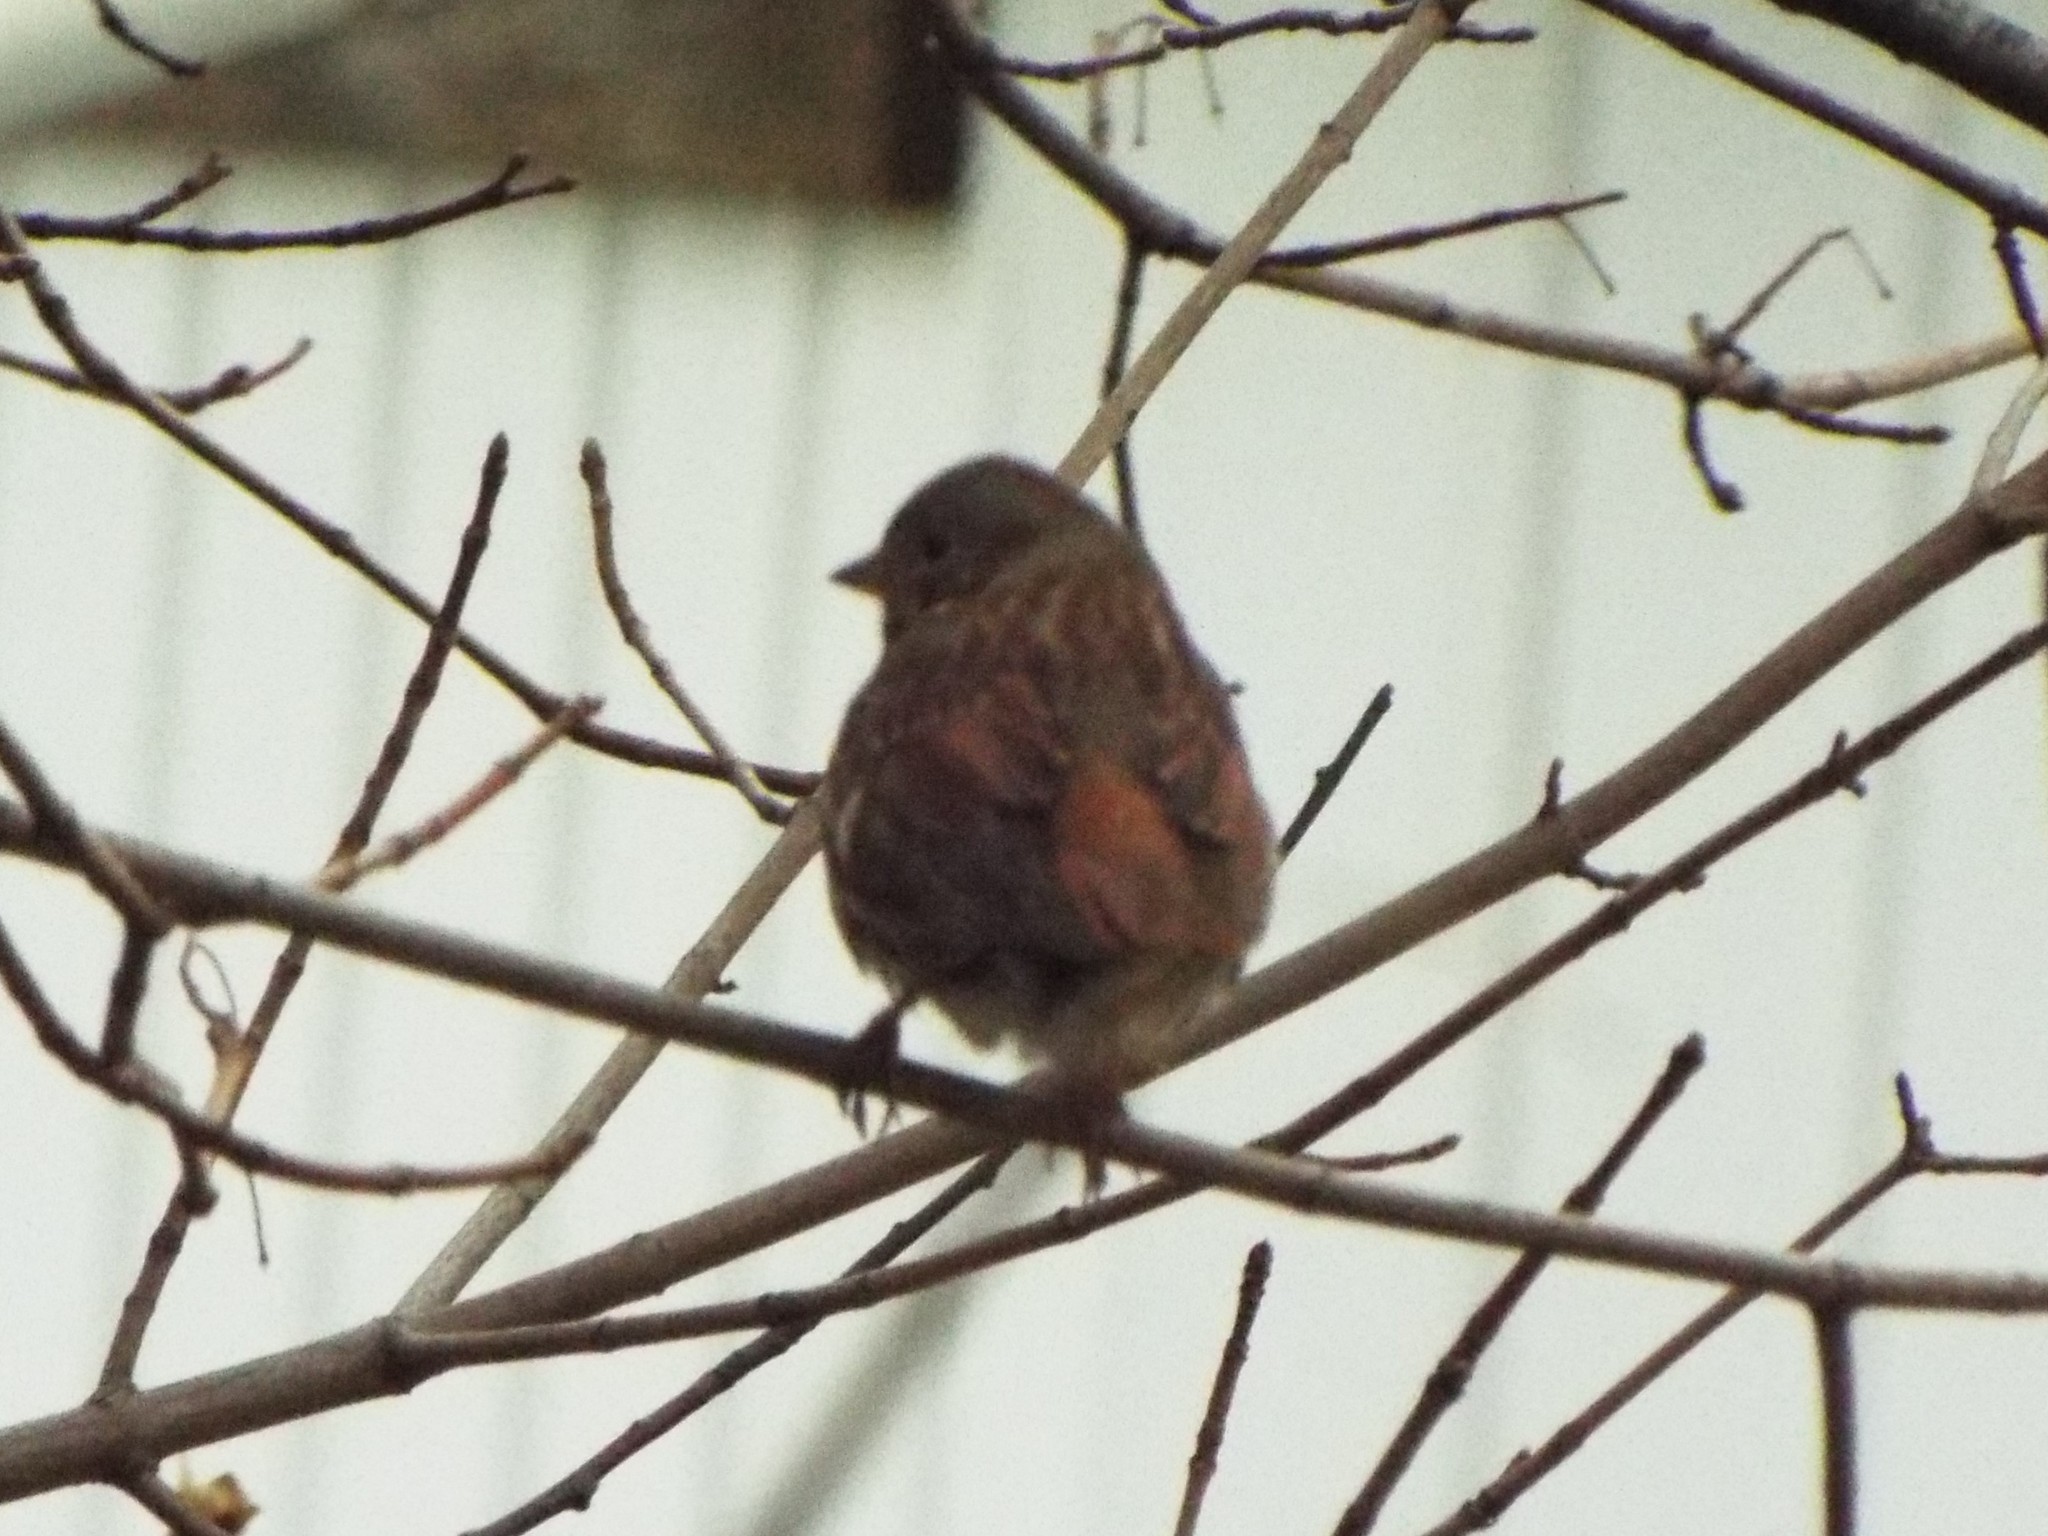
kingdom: Animalia
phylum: Chordata
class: Aves
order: Passeriformes
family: Passerellidae
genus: Passerella
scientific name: Passerella iliaca
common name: Fox sparrow
